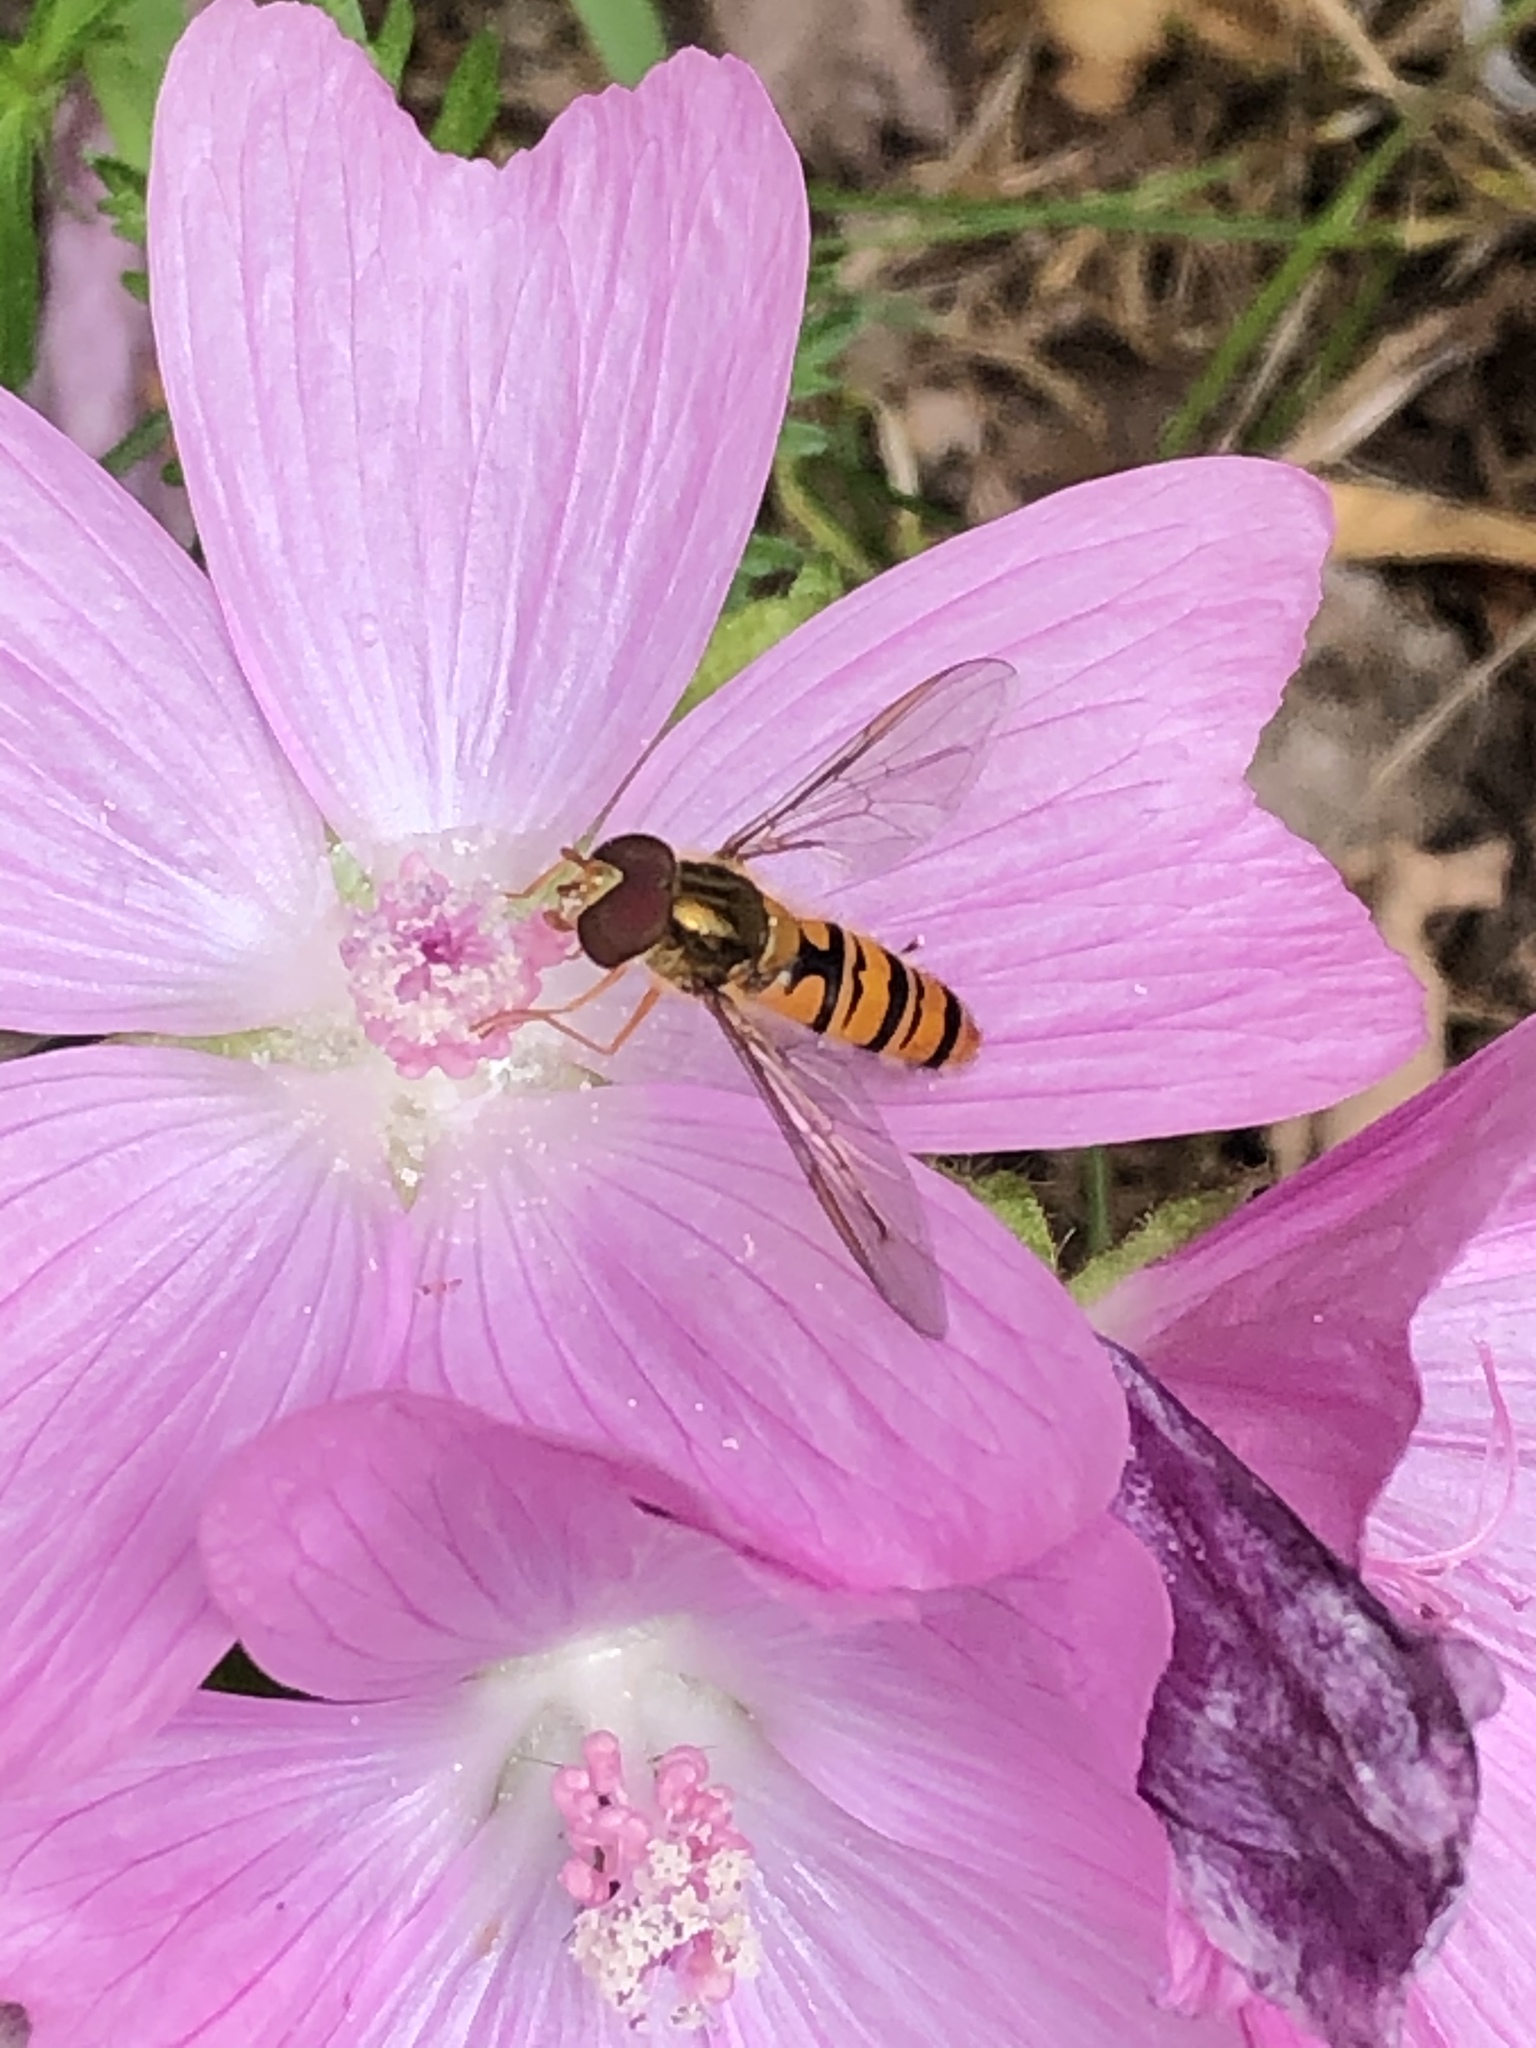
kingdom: Animalia
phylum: Arthropoda
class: Insecta
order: Diptera
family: Syrphidae
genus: Episyrphus
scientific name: Episyrphus balteatus
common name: Marmalade hoverfly
